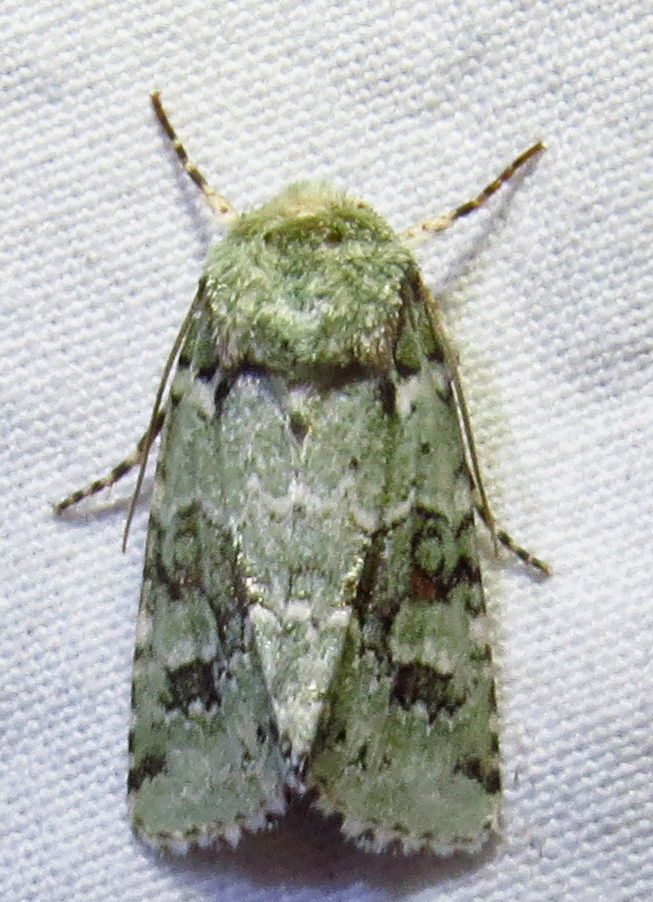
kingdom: Animalia
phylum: Arthropoda
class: Insecta
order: Lepidoptera
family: Noctuidae
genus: Lacinipolia
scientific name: Lacinipolia laudabilis
